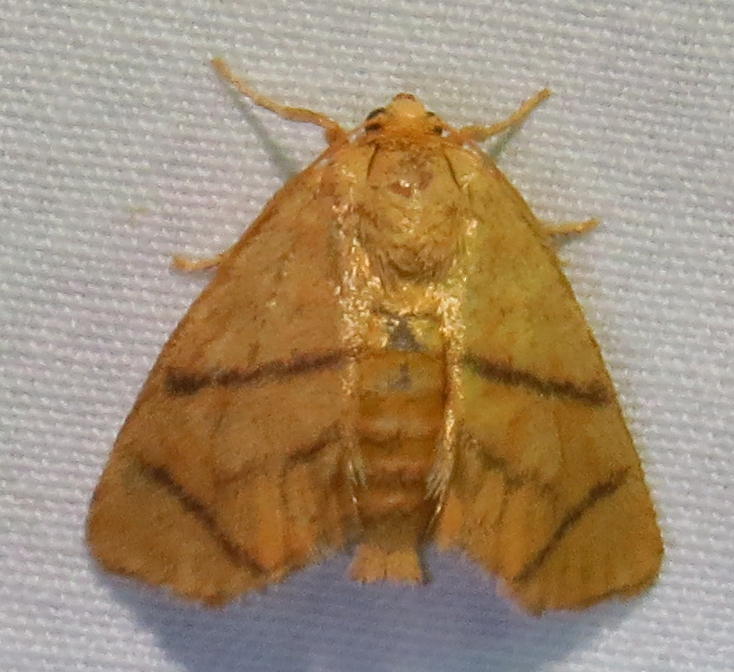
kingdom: Animalia
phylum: Arthropoda
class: Insecta
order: Lepidoptera
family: Limacodidae
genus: Apoda
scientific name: Apoda y-inversa
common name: Yellow-collared slug moth
